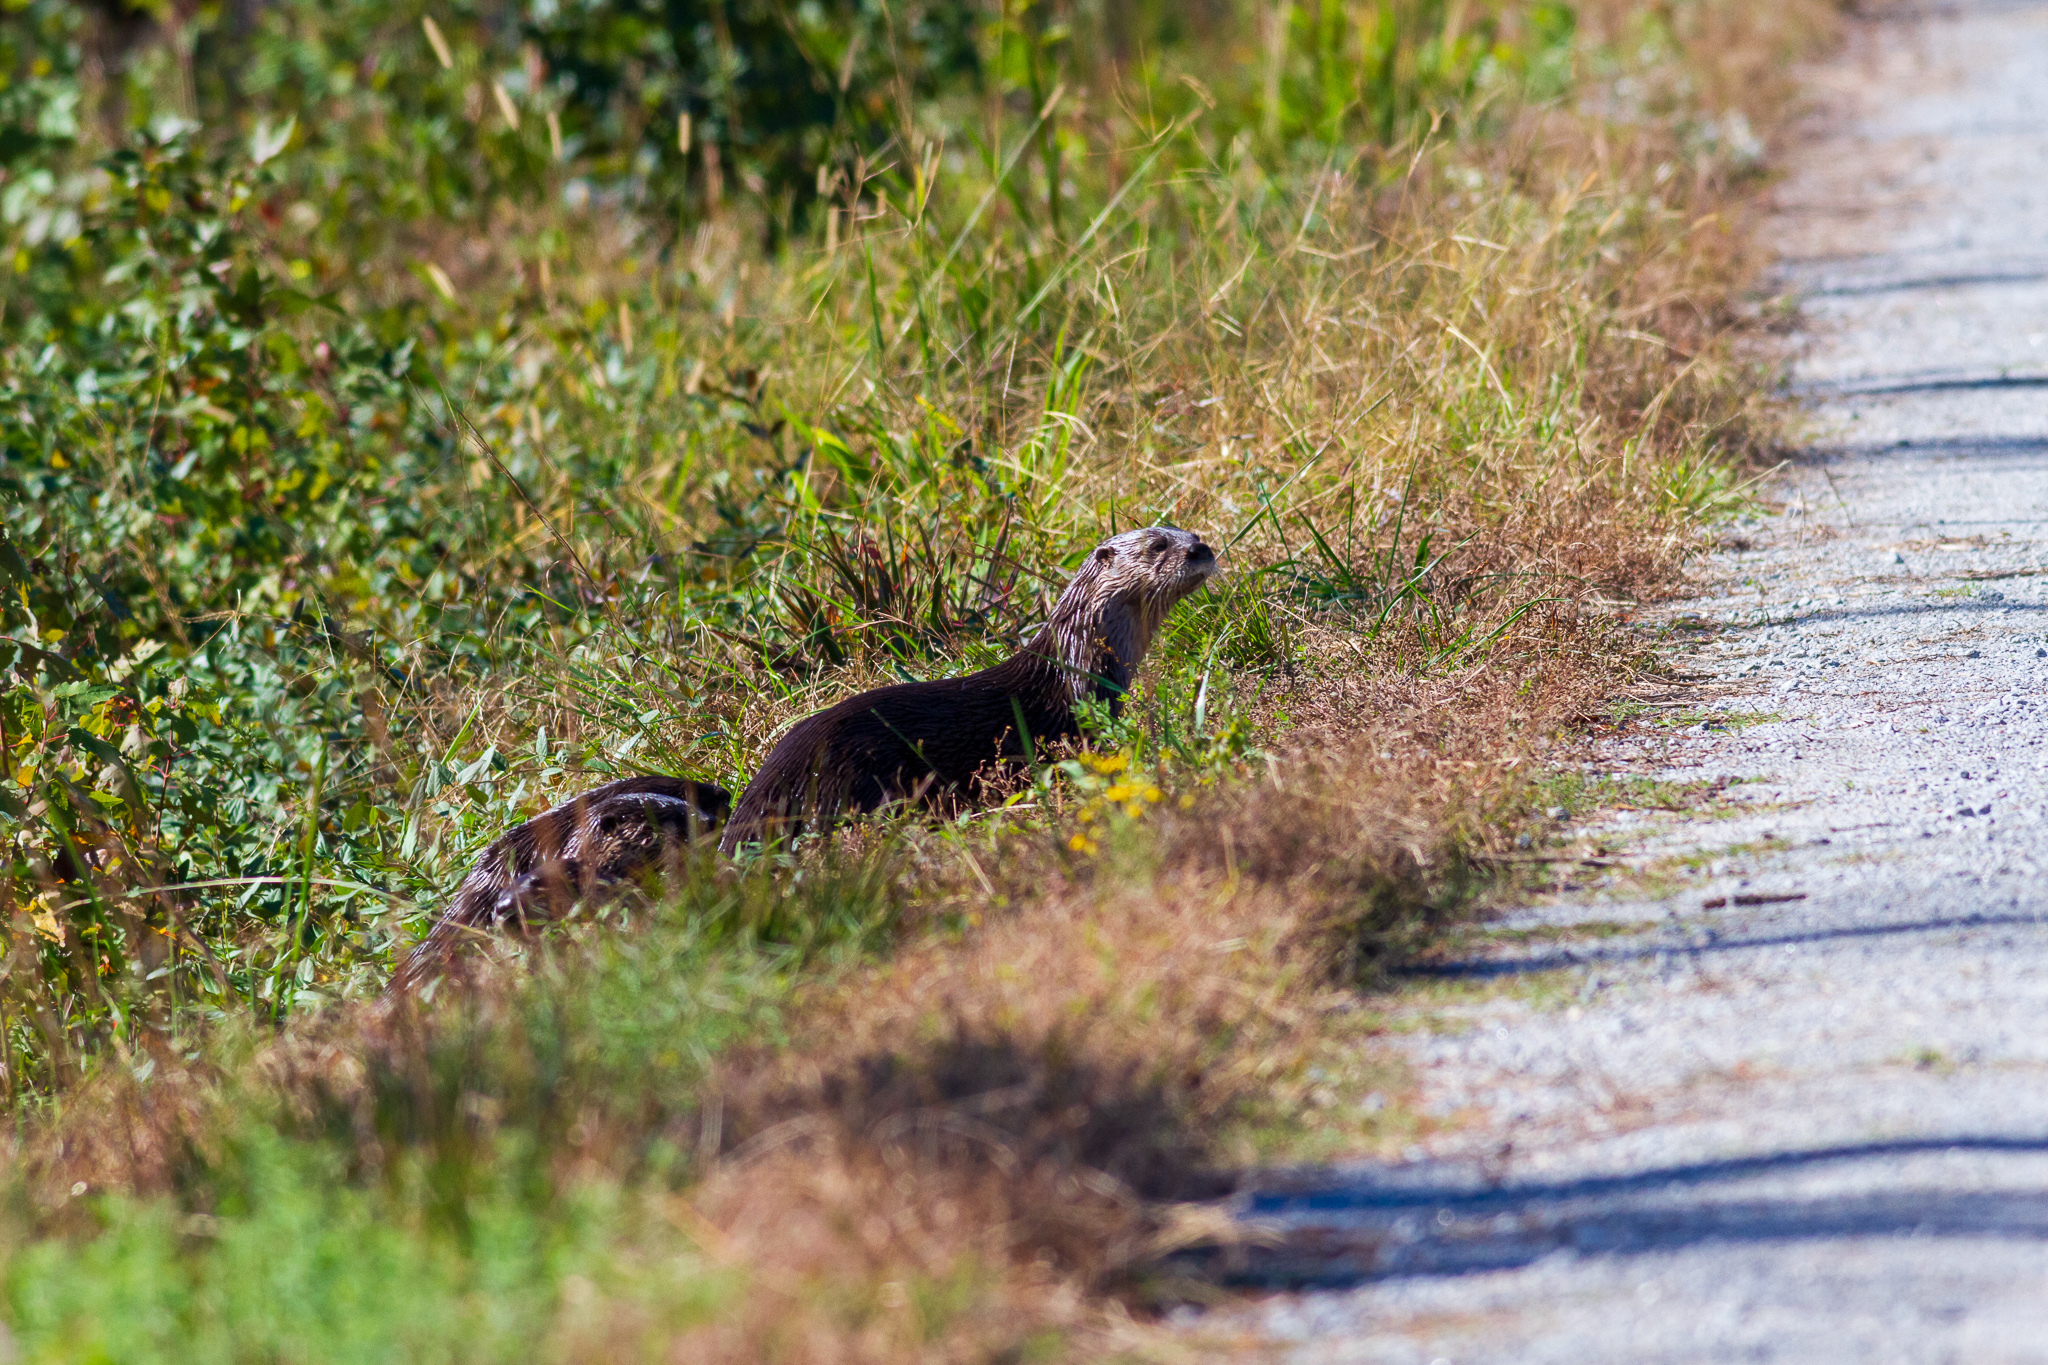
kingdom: Animalia
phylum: Chordata
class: Mammalia
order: Carnivora
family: Mustelidae
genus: Lontra
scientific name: Lontra canadensis
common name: North american river otter
